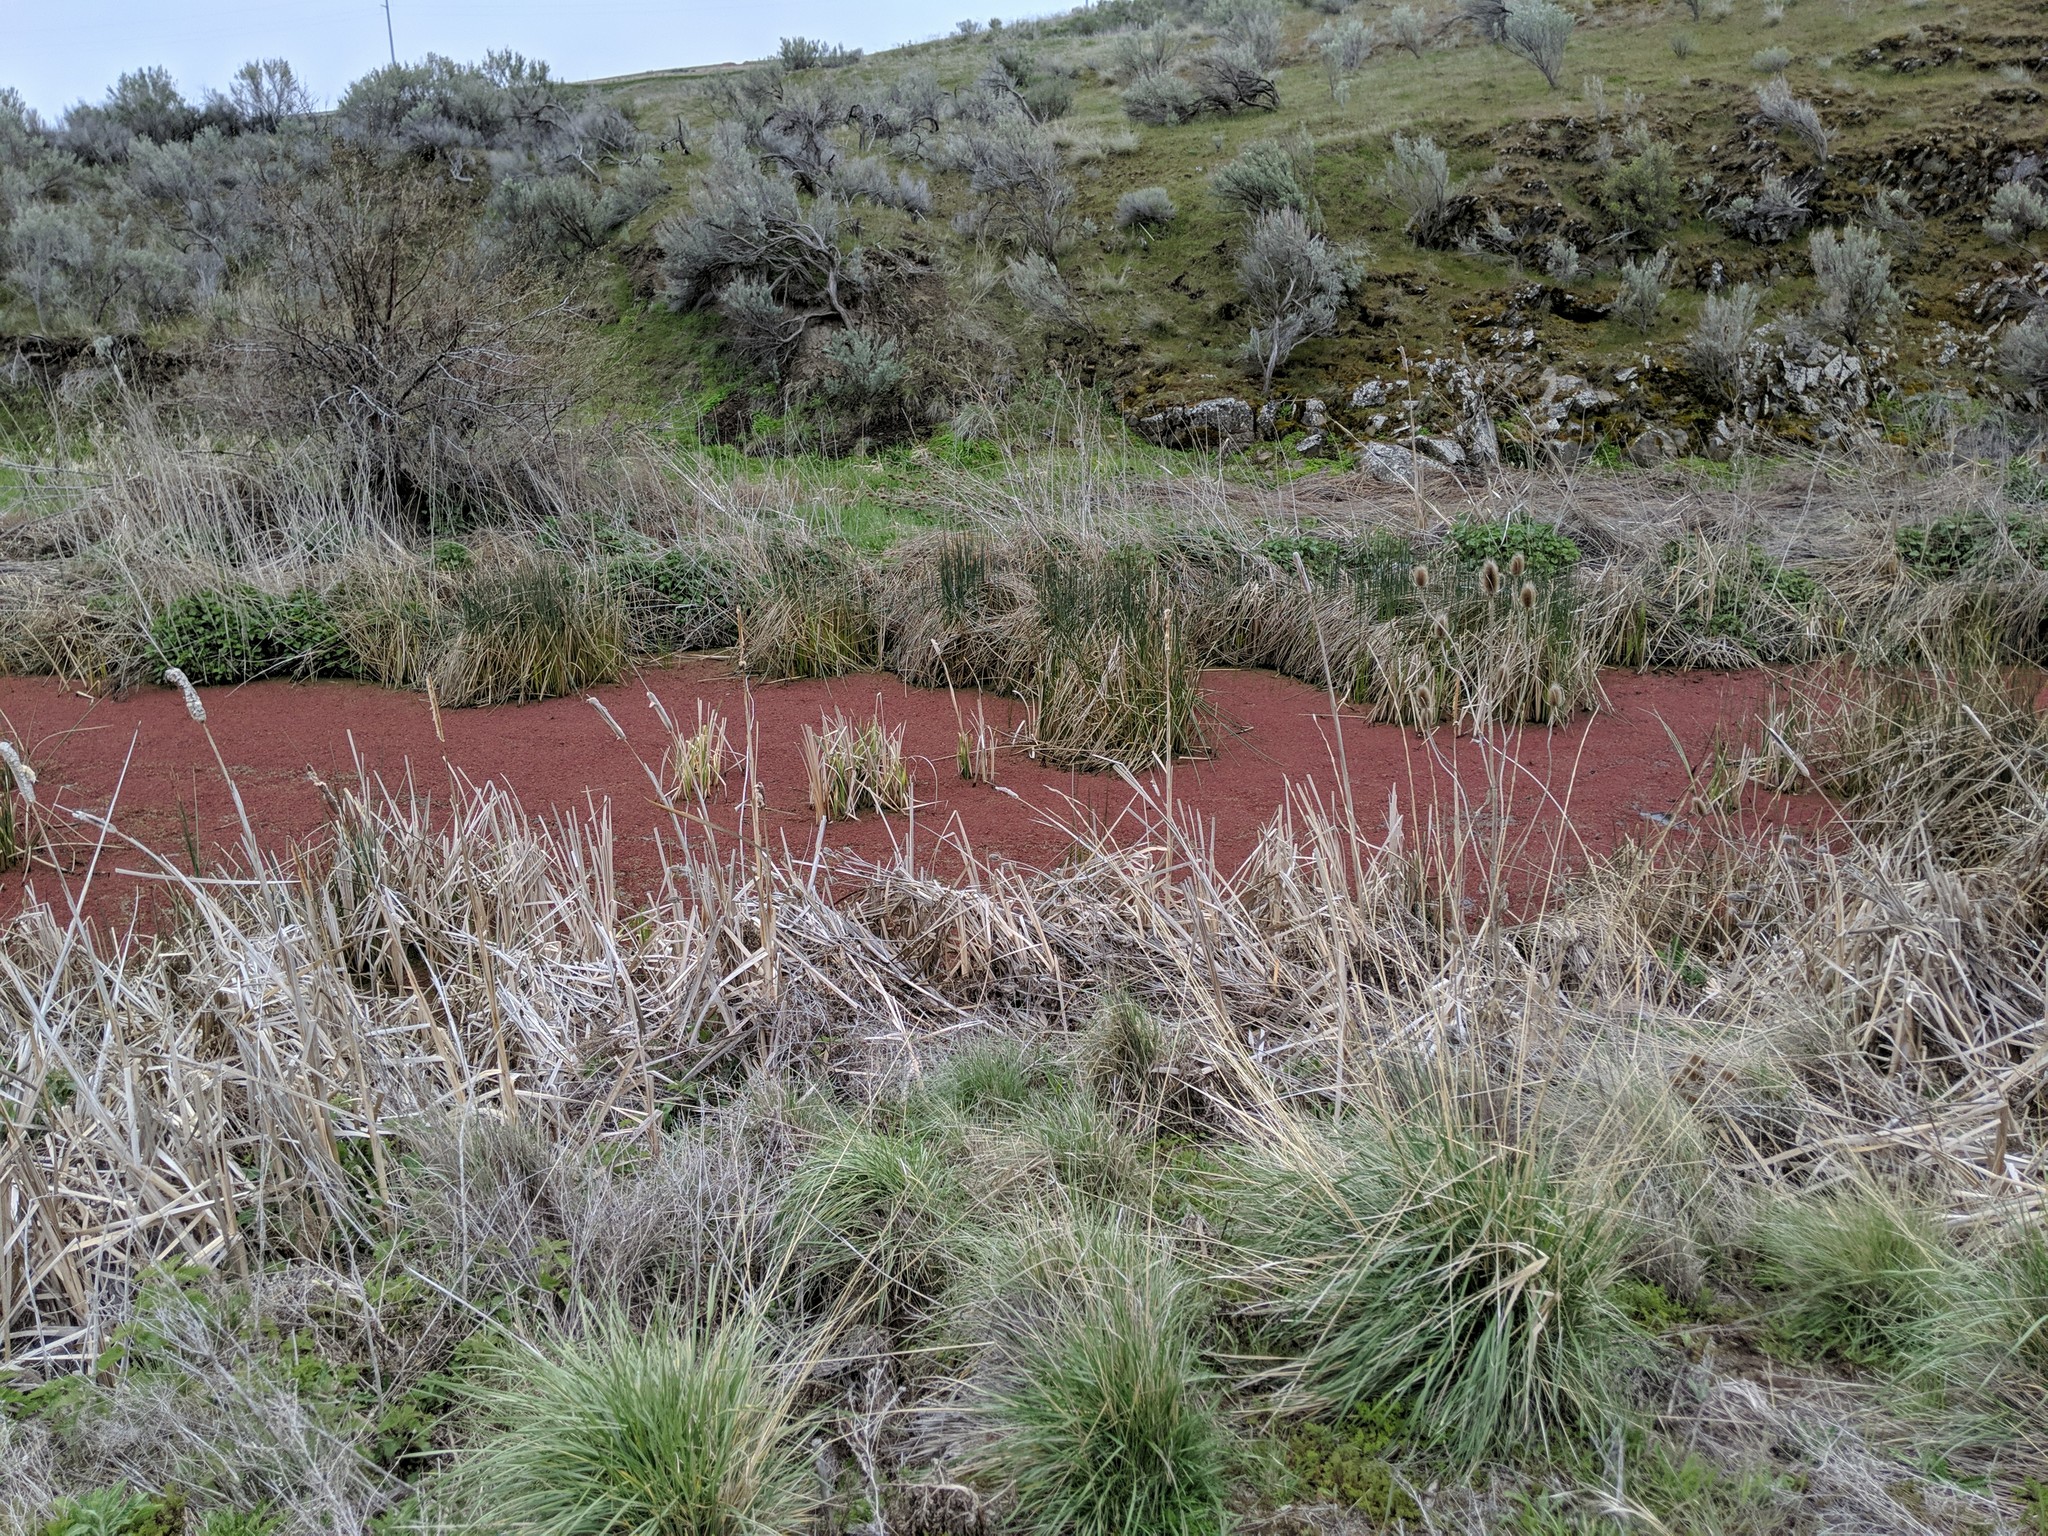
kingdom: Plantae
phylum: Tracheophyta
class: Polypodiopsida
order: Salviniales
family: Salviniaceae
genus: Azolla
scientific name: Azolla filiculoides
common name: Water fern
